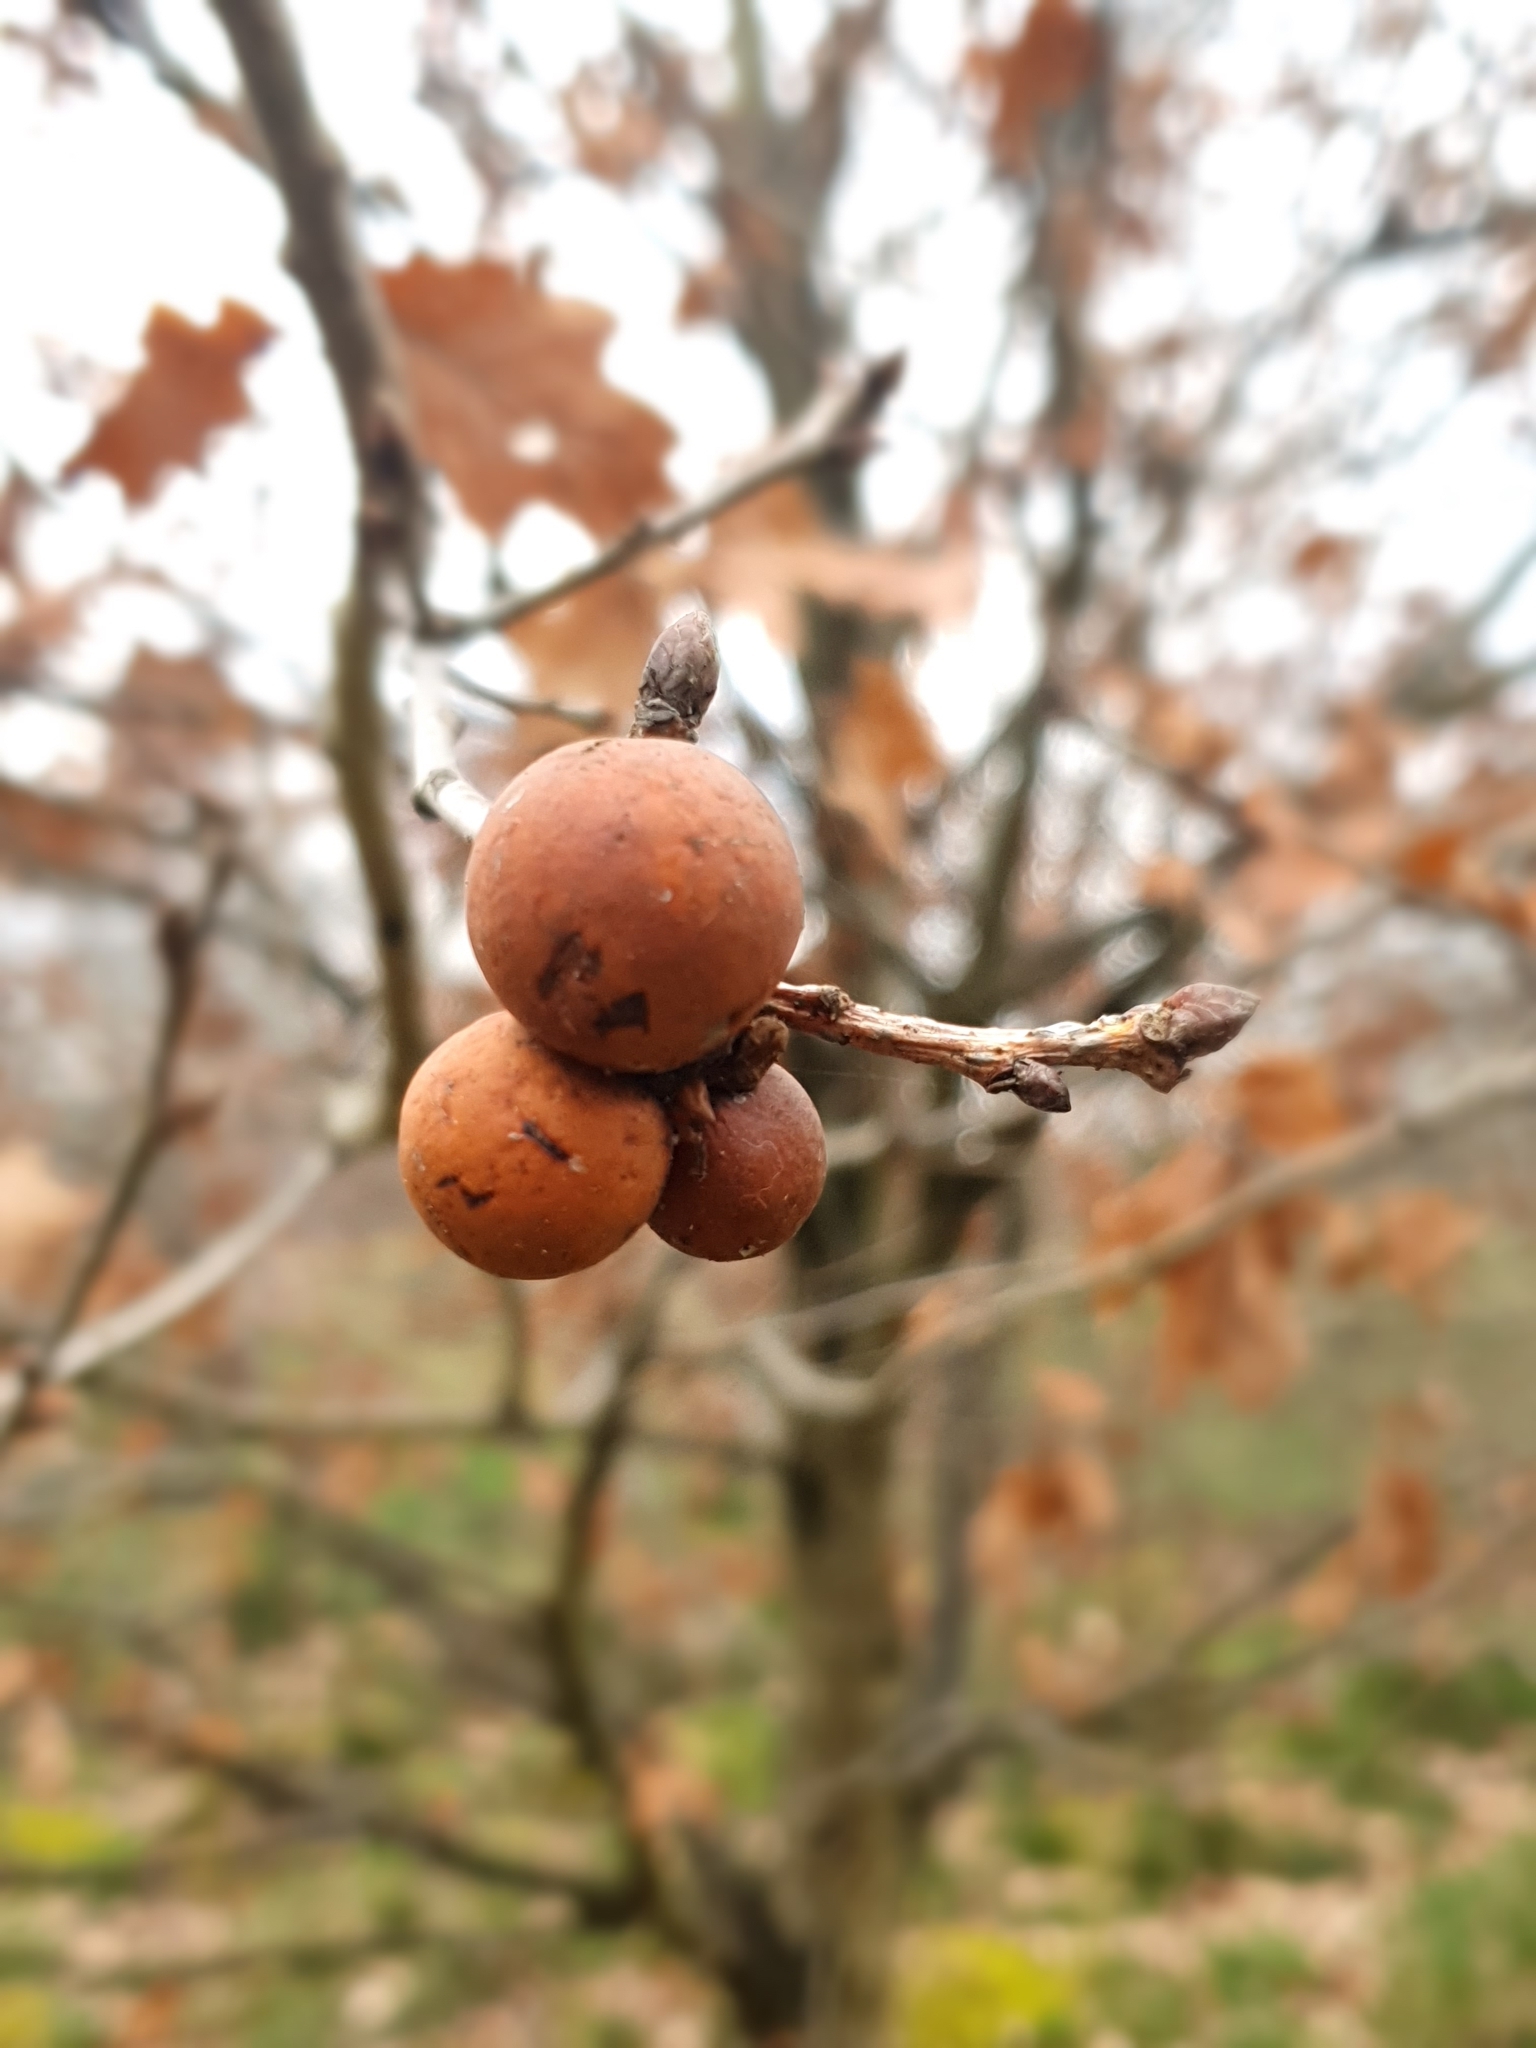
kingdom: Animalia
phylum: Arthropoda
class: Insecta
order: Hymenoptera
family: Cynipidae
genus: Andricus
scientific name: Andricus kollari
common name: Marble gall
